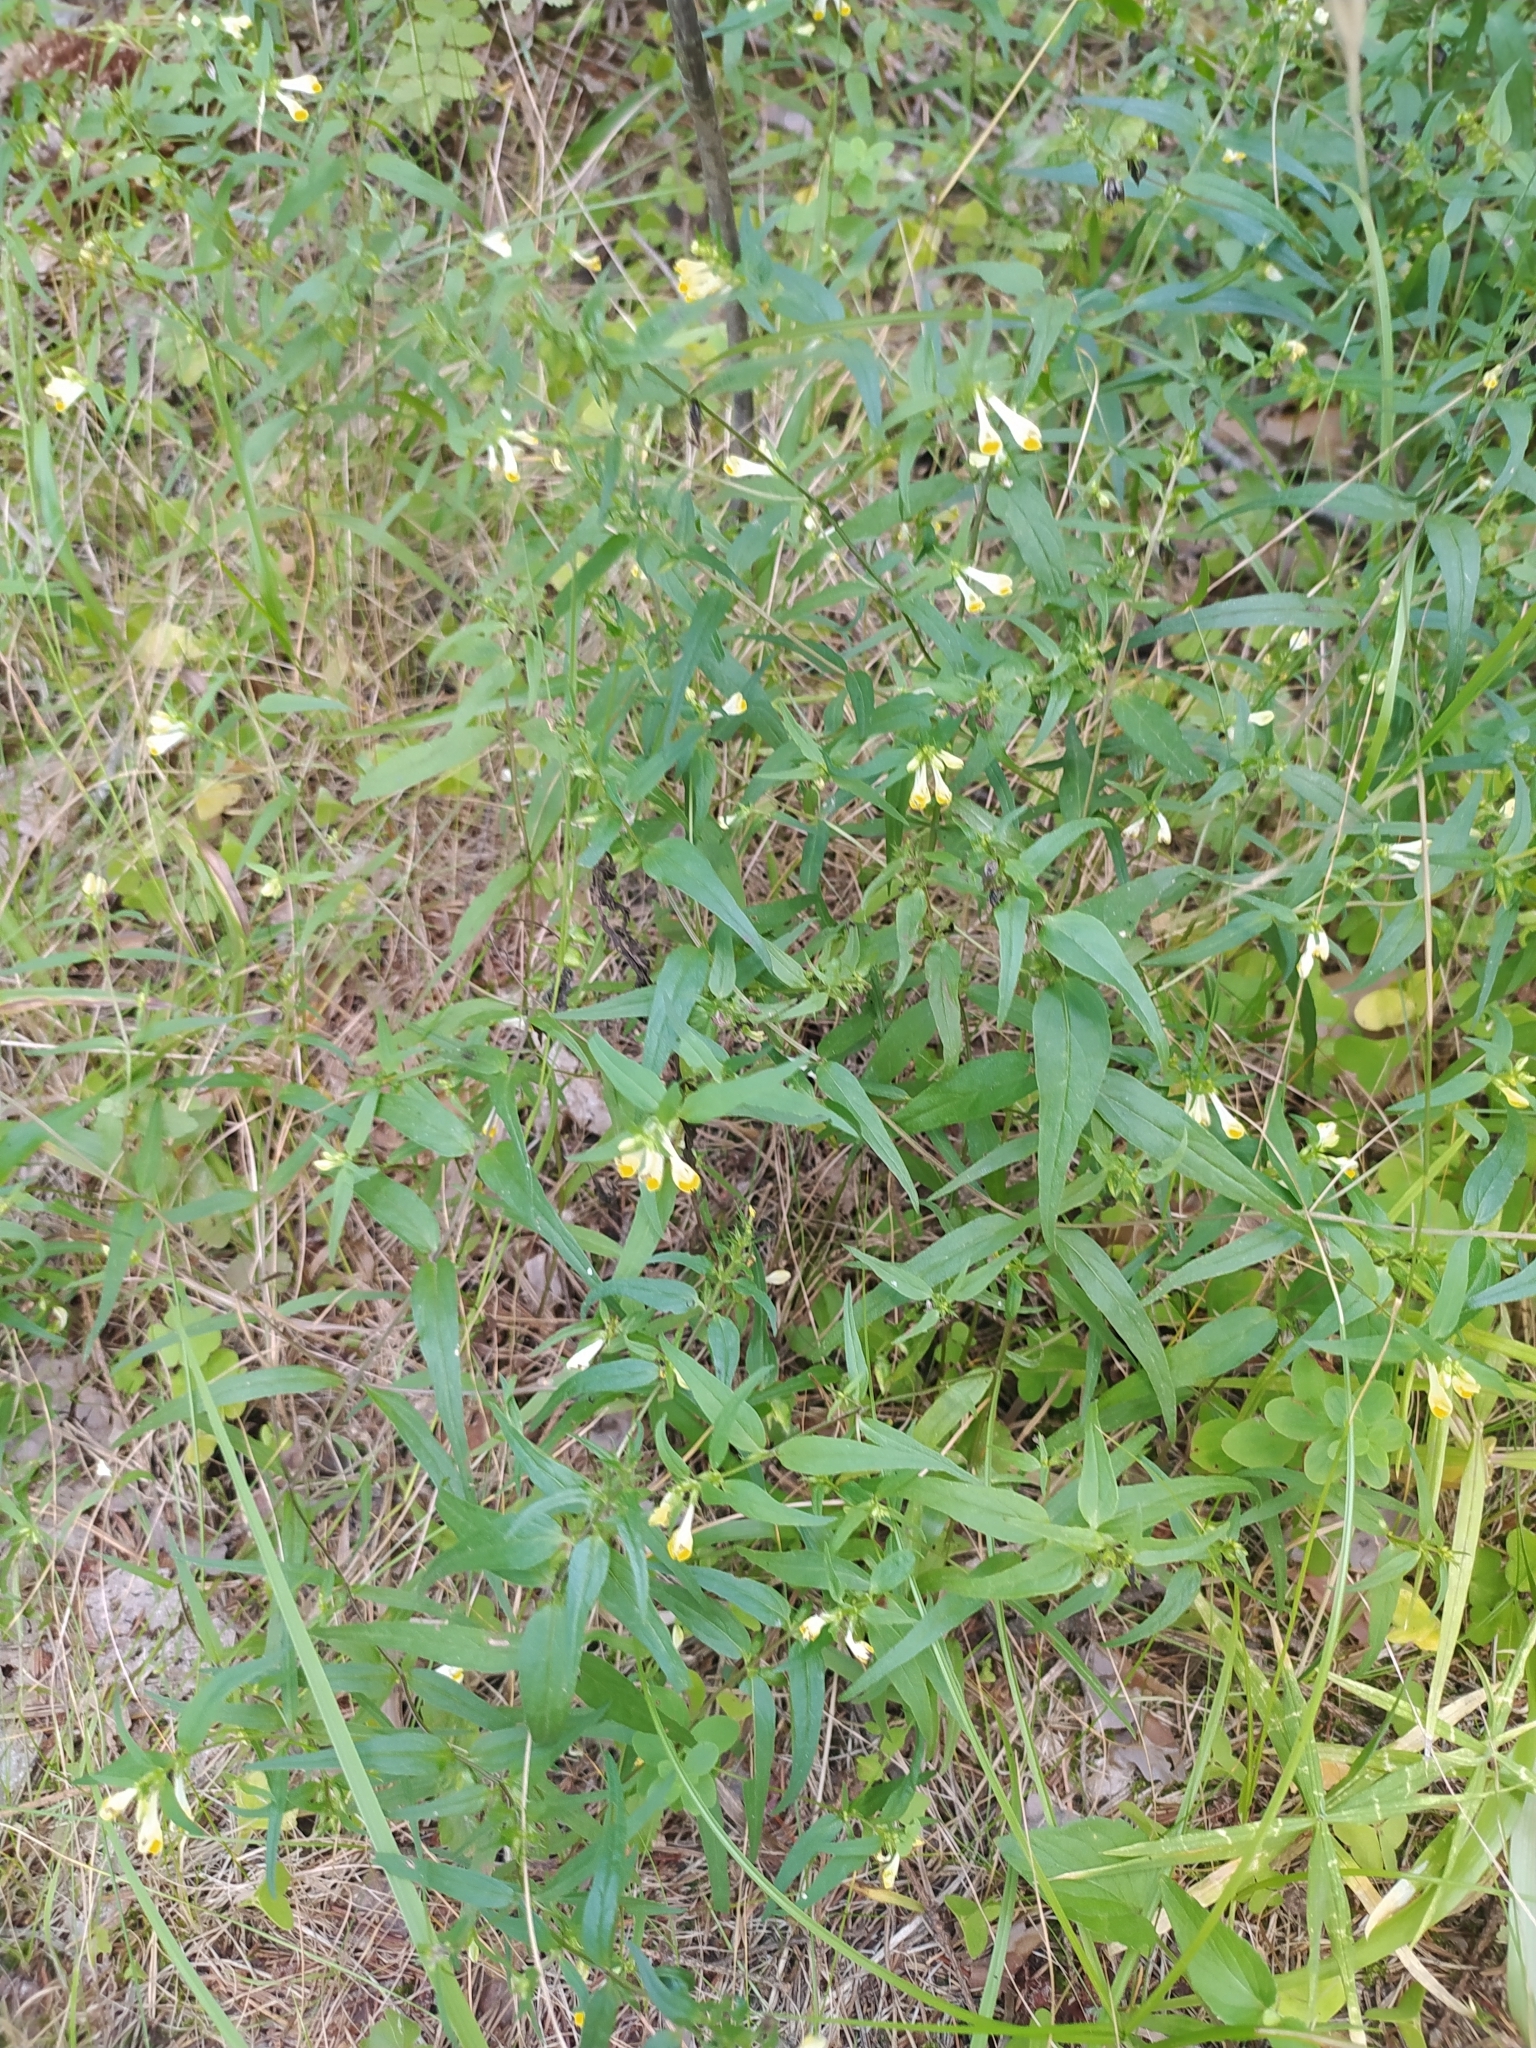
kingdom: Plantae
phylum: Tracheophyta
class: Magnoliopsida
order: Lamiales
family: Orobanchaceae
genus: Melampyrum
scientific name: Melampyrum pratense
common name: Common cow-wheat
